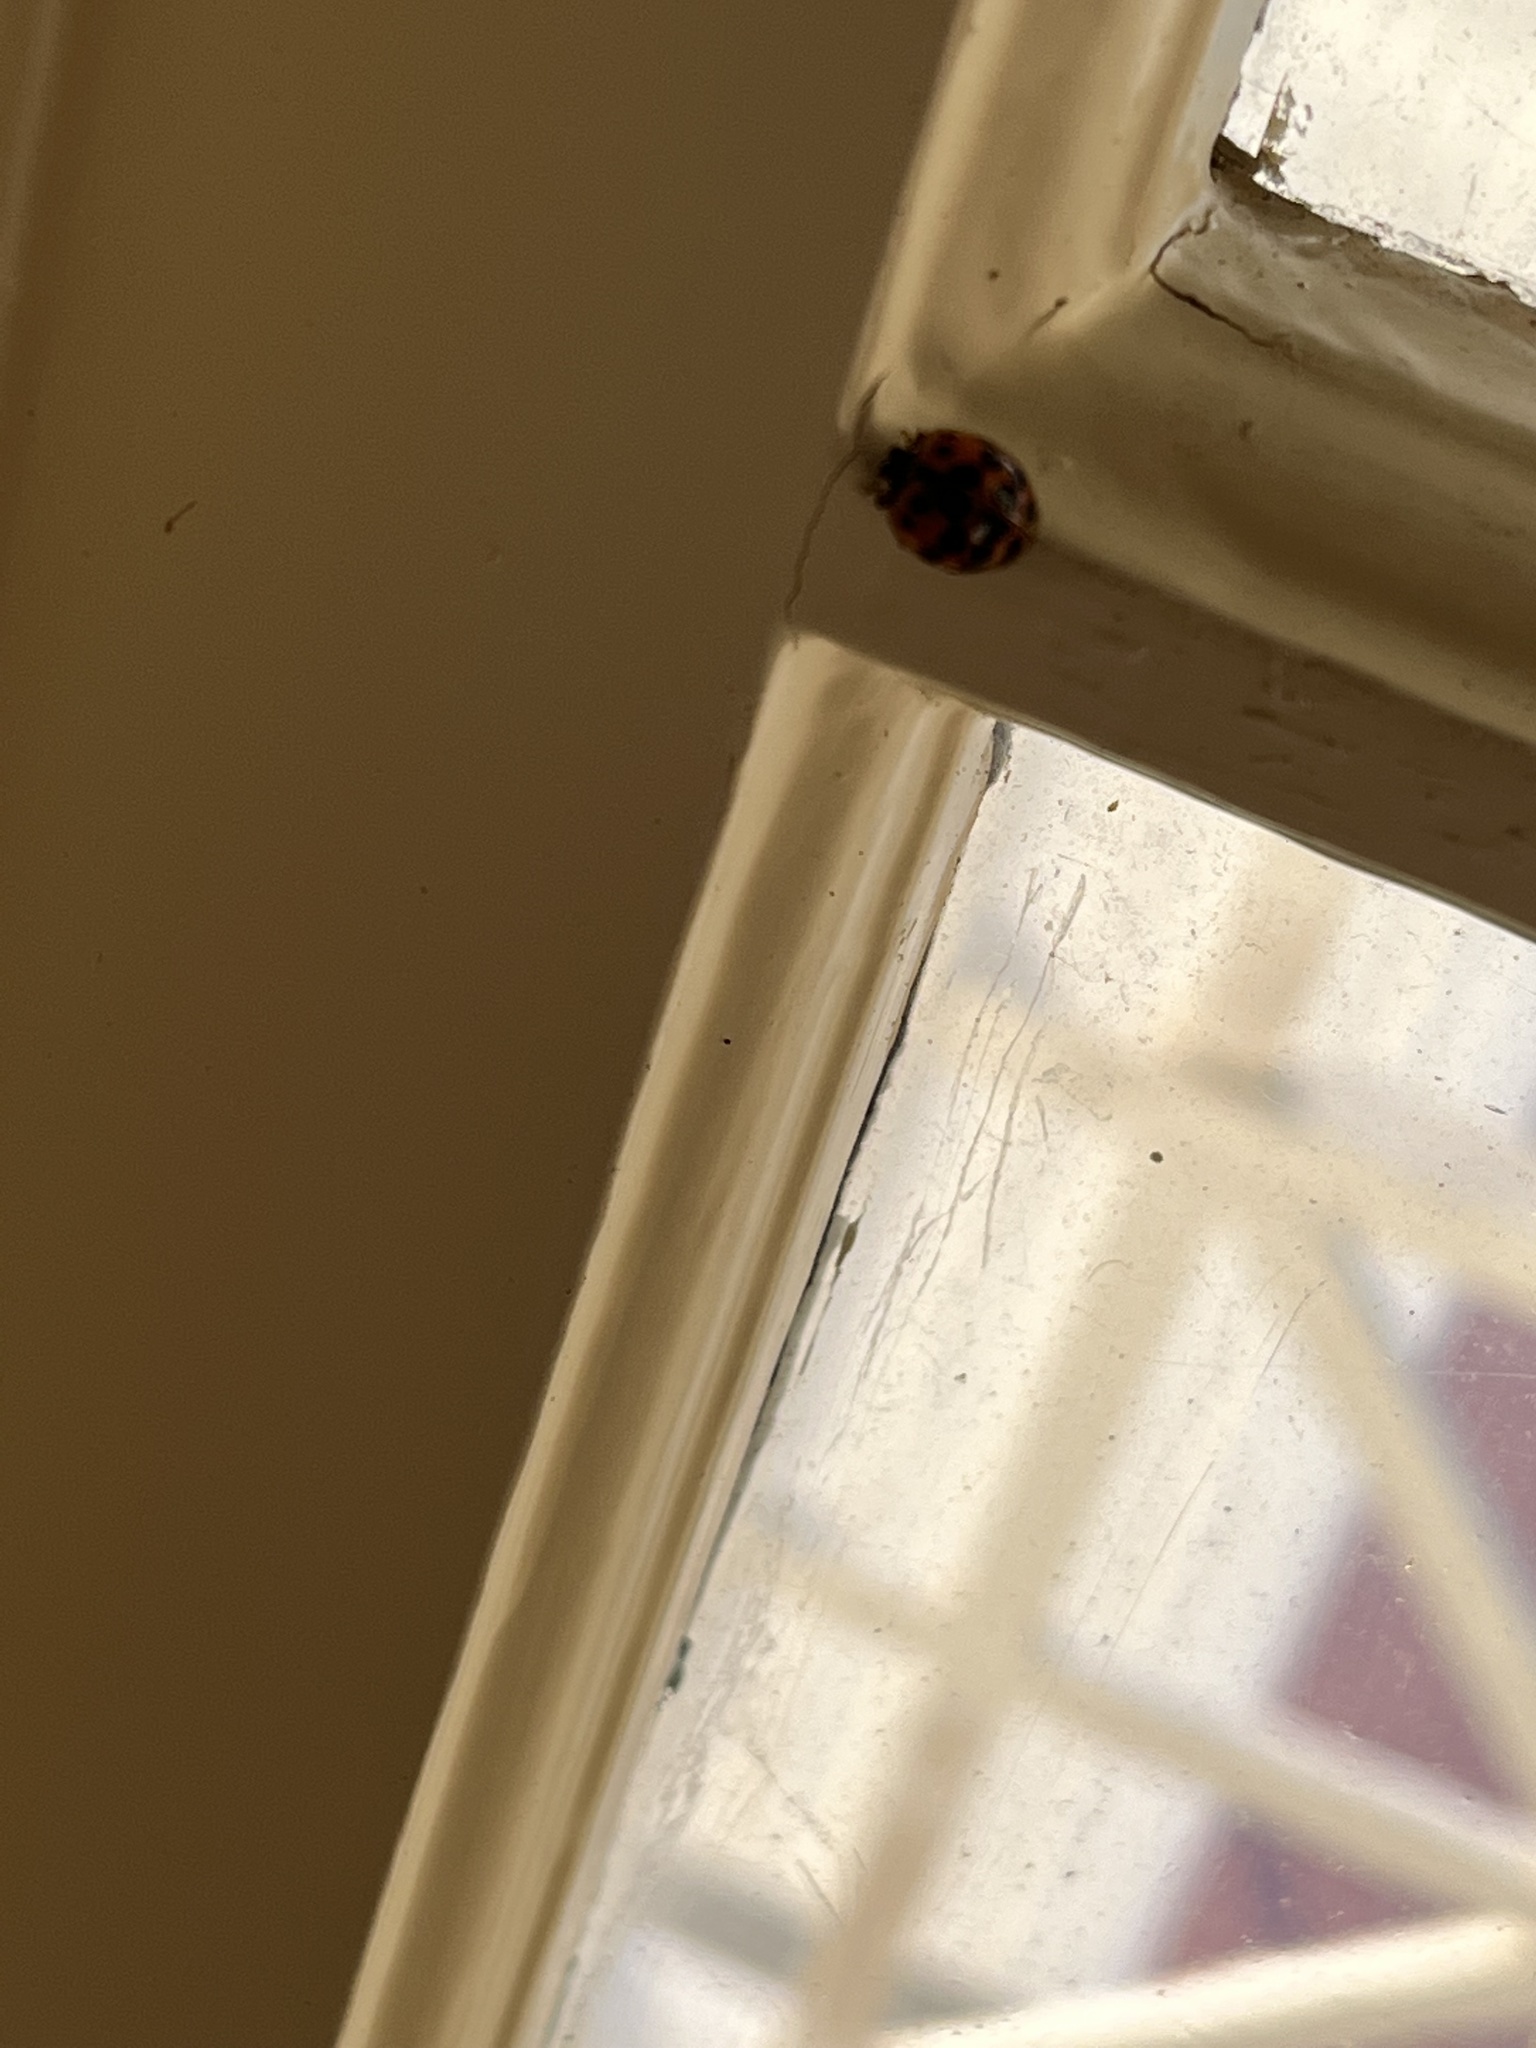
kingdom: Animalia
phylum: Arthropoda
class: Insecta
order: Coleoptera
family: Coccinellidae
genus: Harmonia
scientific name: Harmonia axyridis
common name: Harlequin ladybird
